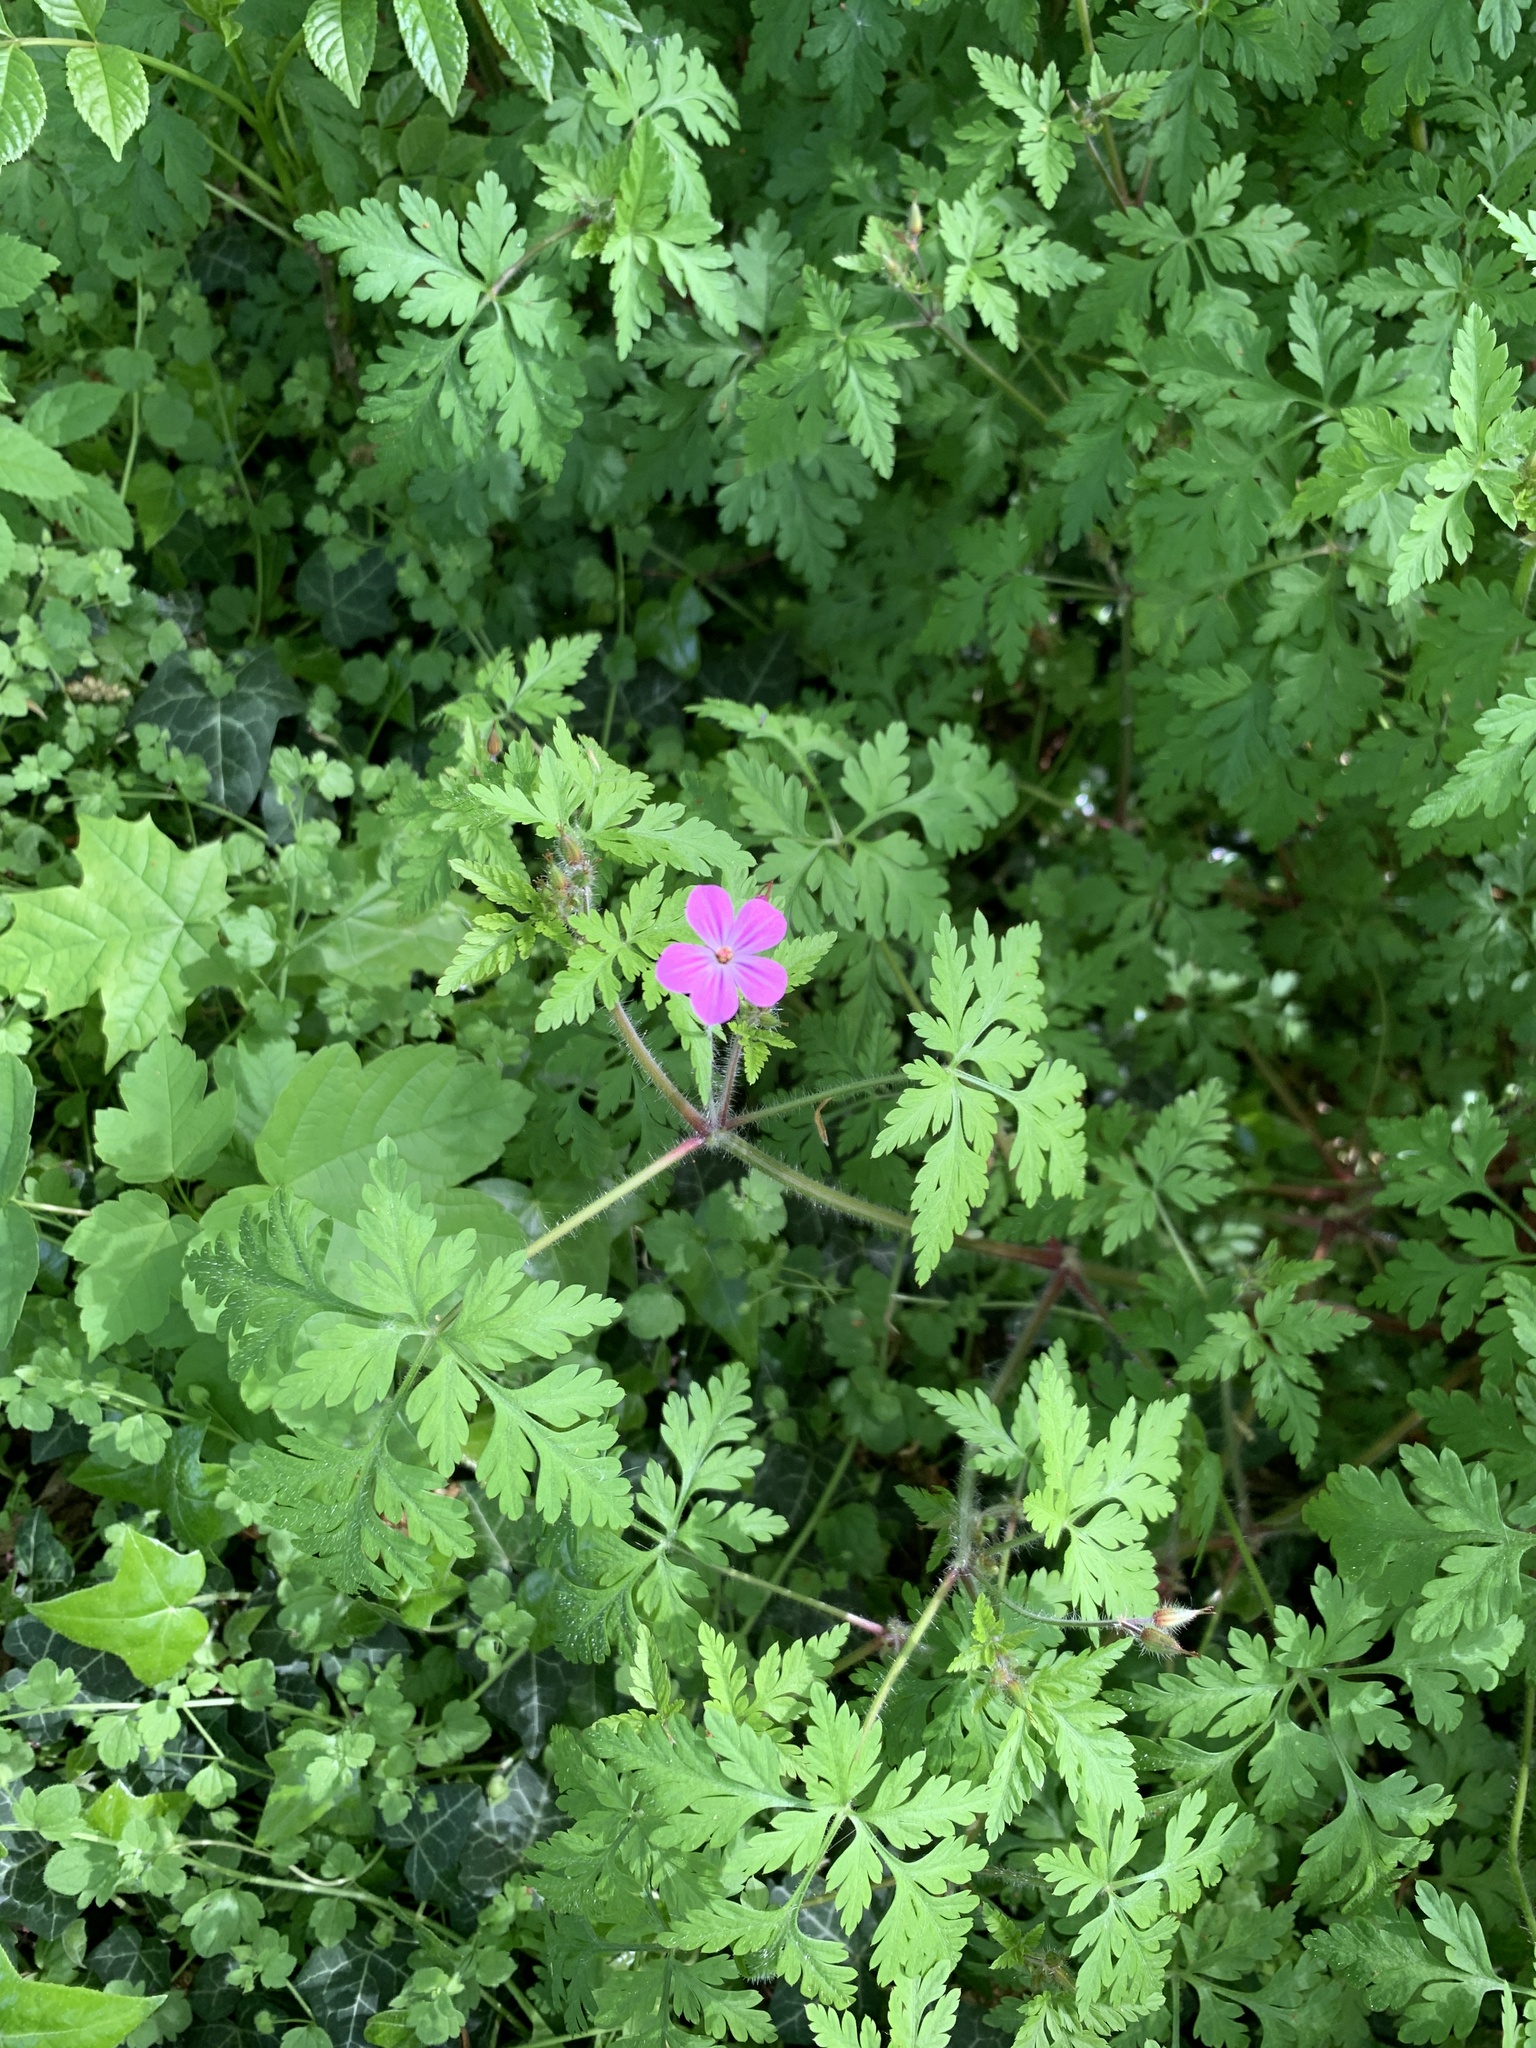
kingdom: Plantae
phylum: Tracheophyta
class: Magnoliopsida
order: Geraniales
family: Geraniaceae
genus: Geranium
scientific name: Geranium robertianum
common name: Herb-robert
